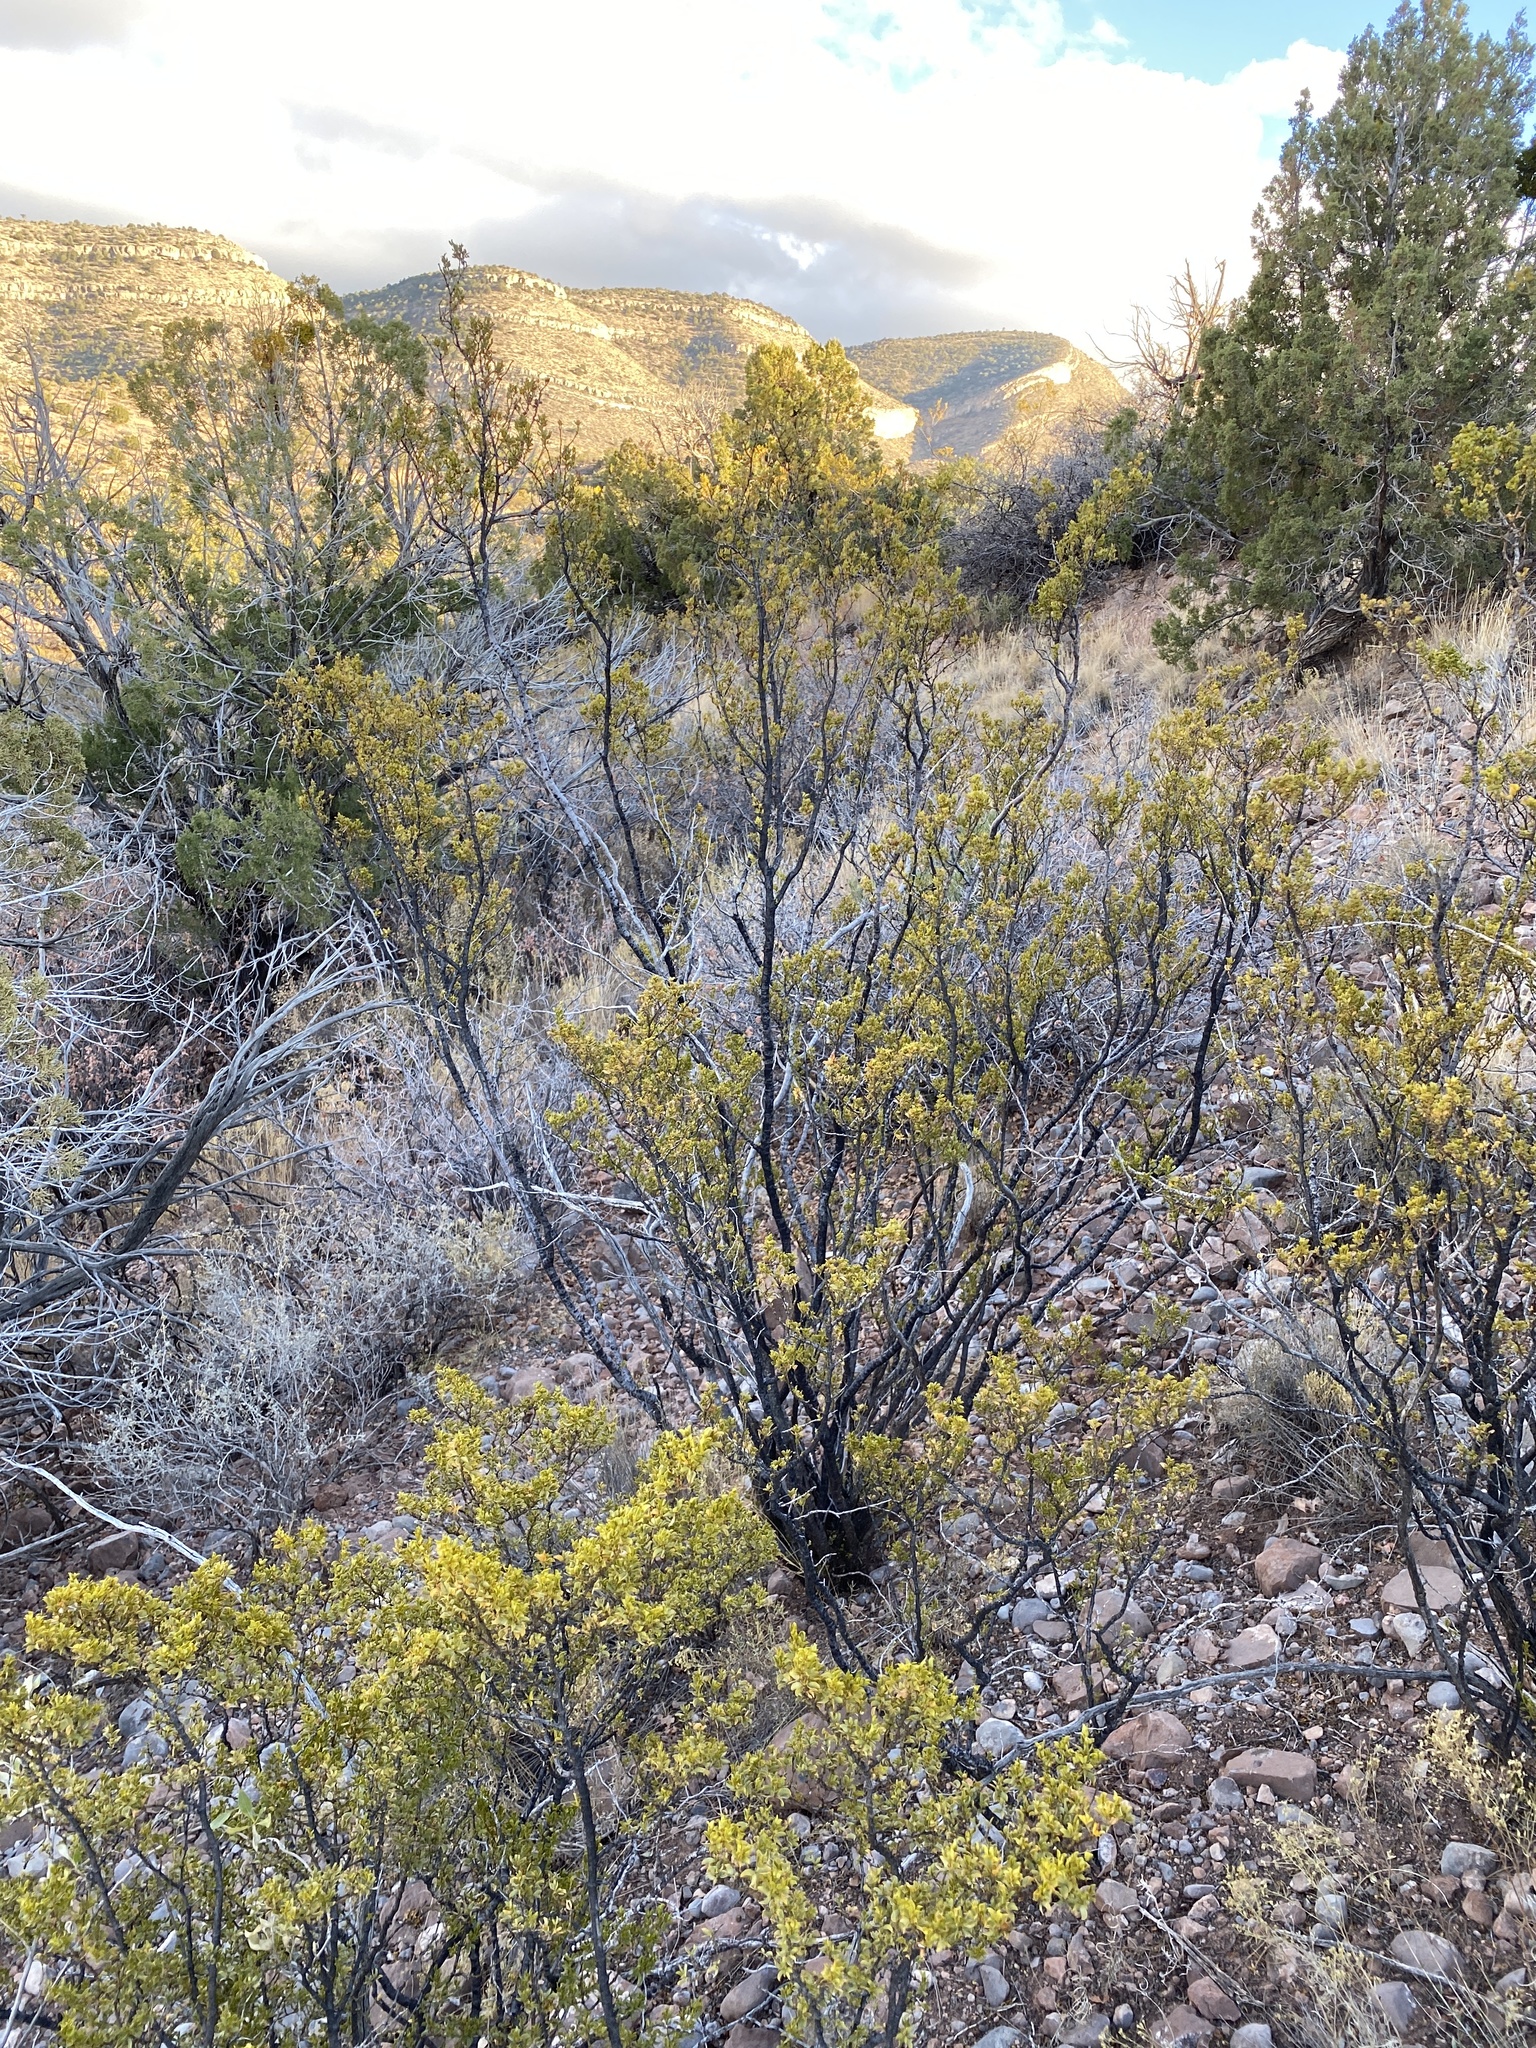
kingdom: Plantae
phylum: Tracheophyta
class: Magnoliopsida
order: Zygophyllales
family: Zygophyllaceae
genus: Larrea
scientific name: Larrea tridentata
